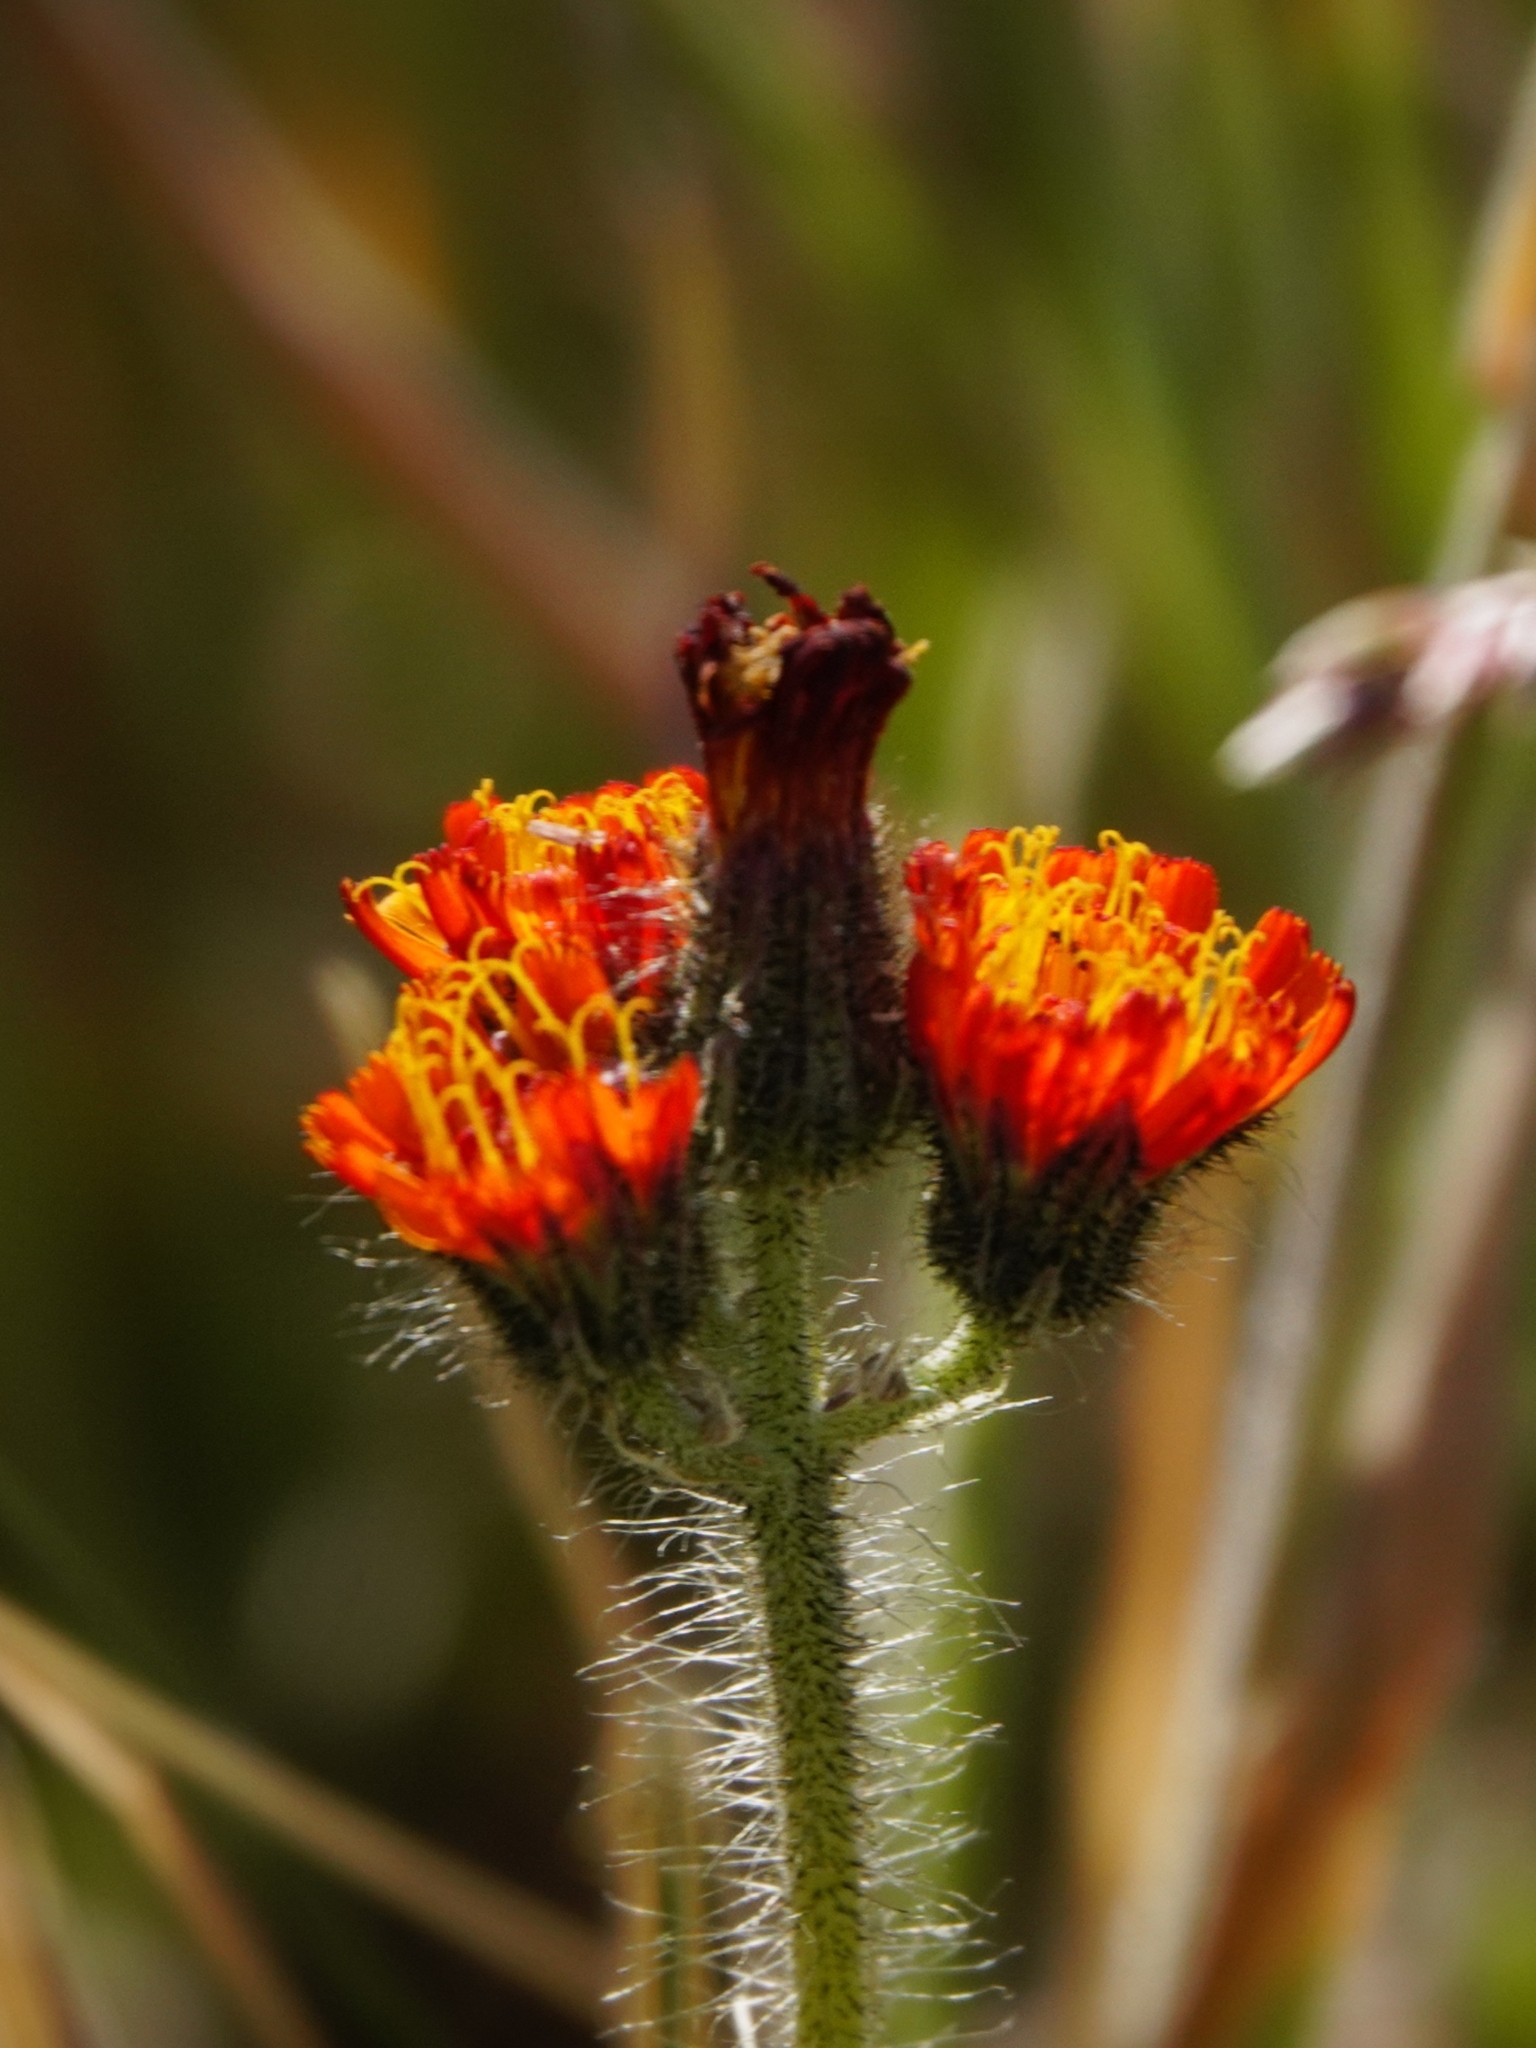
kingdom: Plantae
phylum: Tracheophyta
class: Magnoliopsida
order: Asterales
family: Asteraceae
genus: Pilosella
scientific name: Pilosella aurantiaca
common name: Fox-and-cubs
